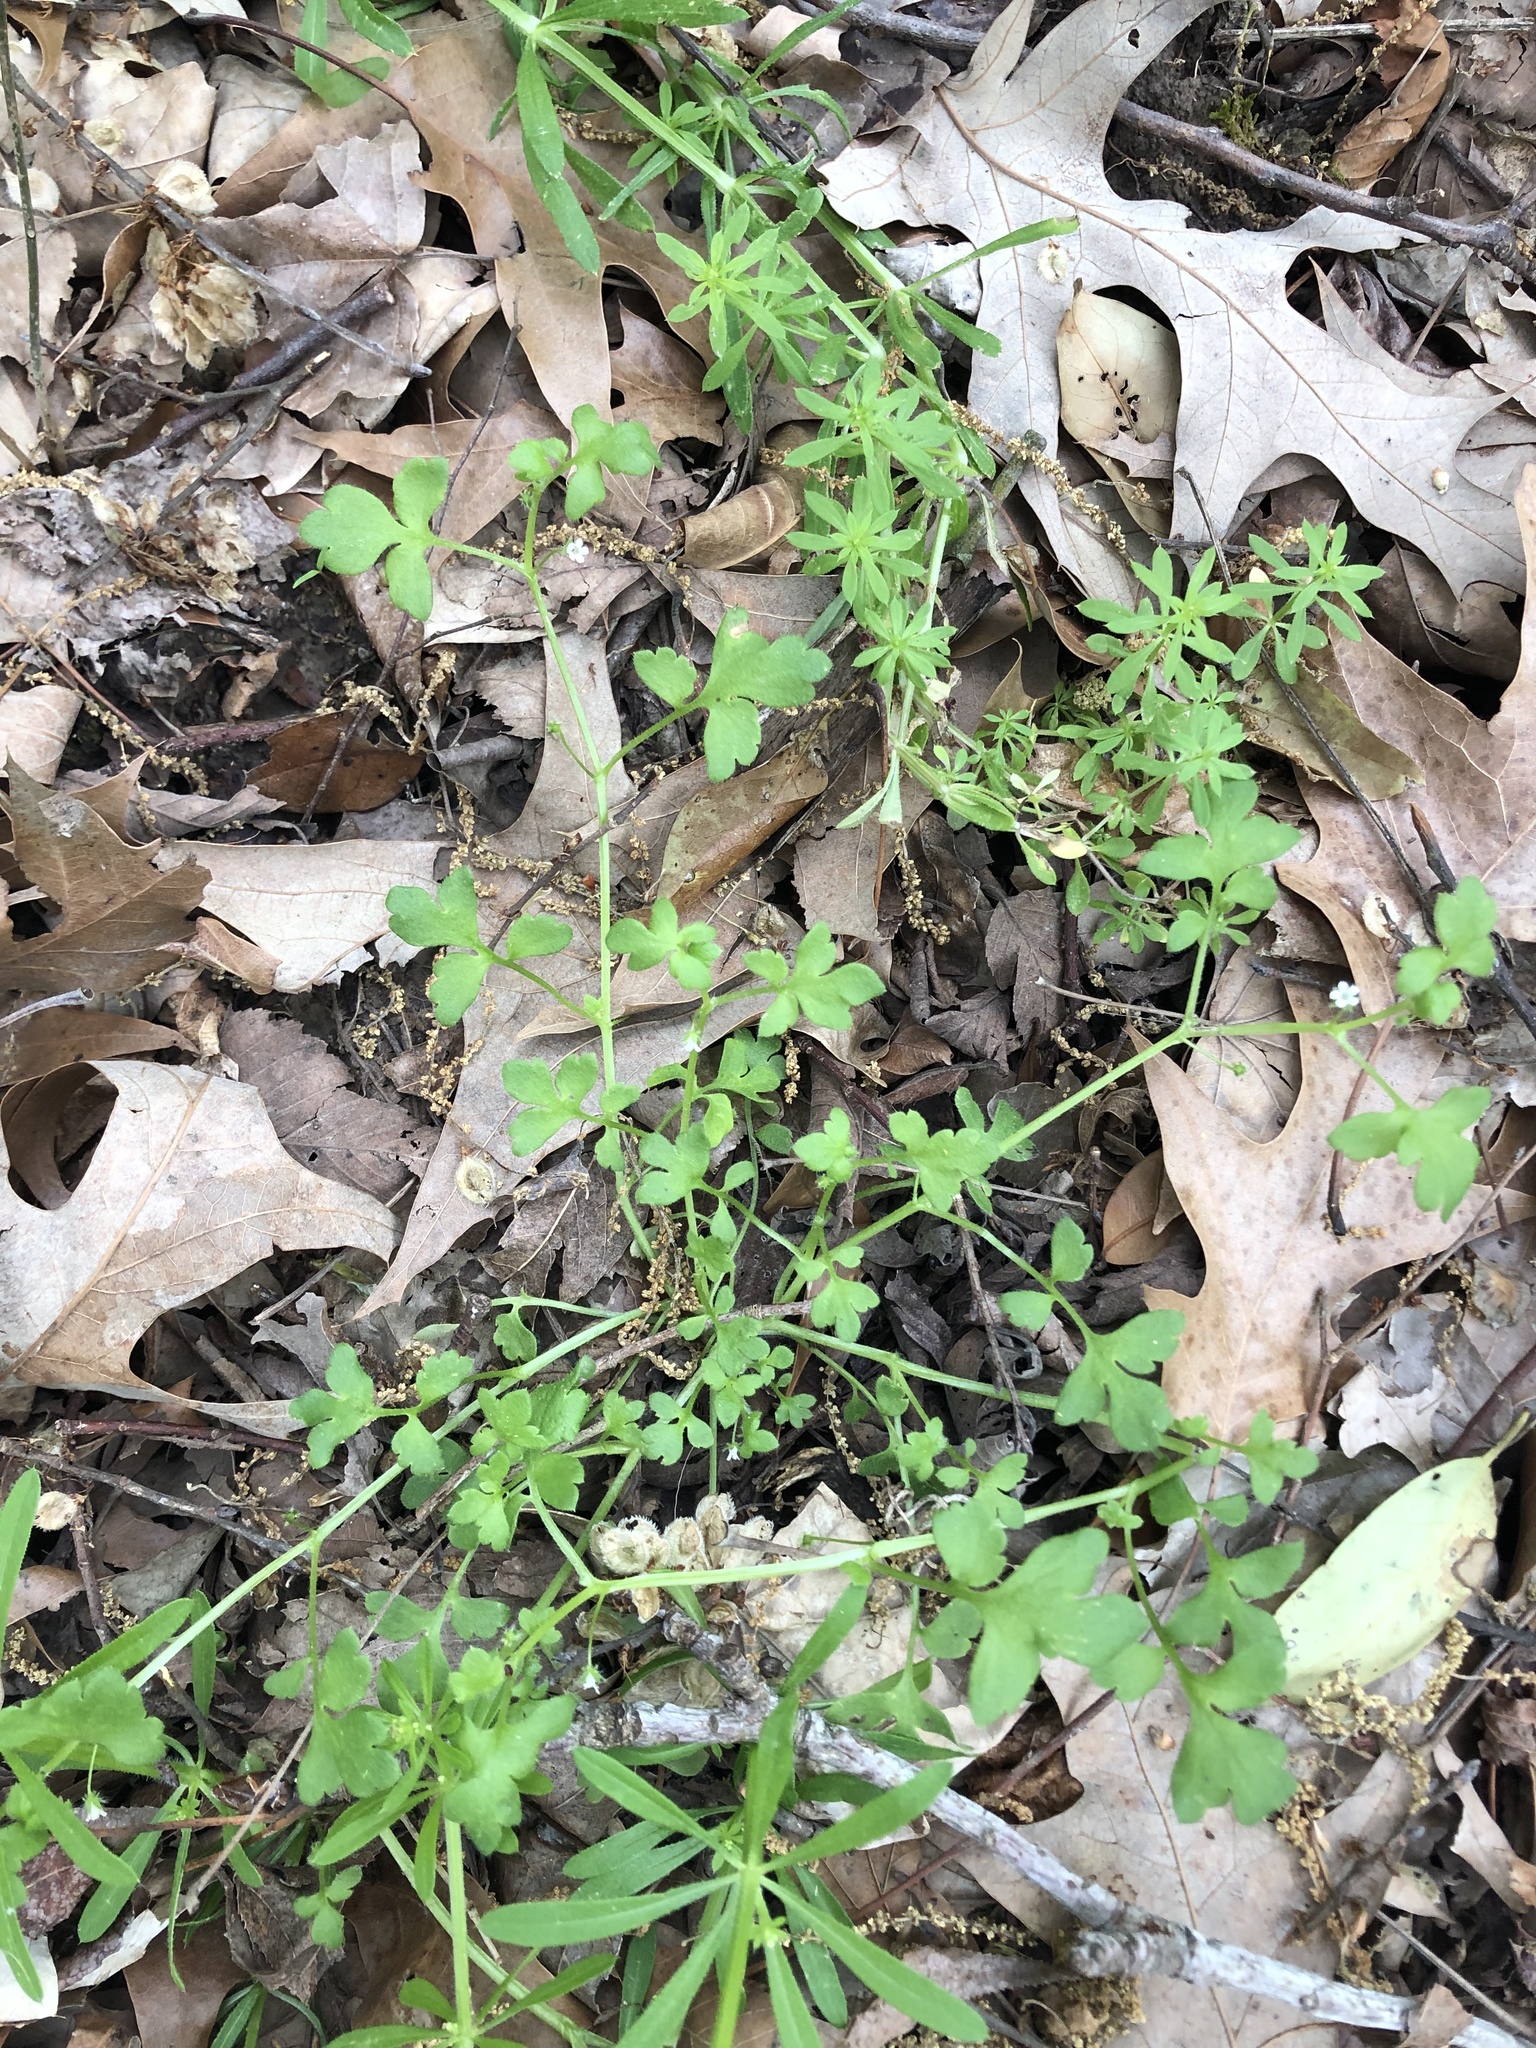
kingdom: Plantae
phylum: Tracheophyta
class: Magnoliopsida
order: Boraginales
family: Hydrophyllaceae
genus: Nemophila
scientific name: Nemophila aphylla
